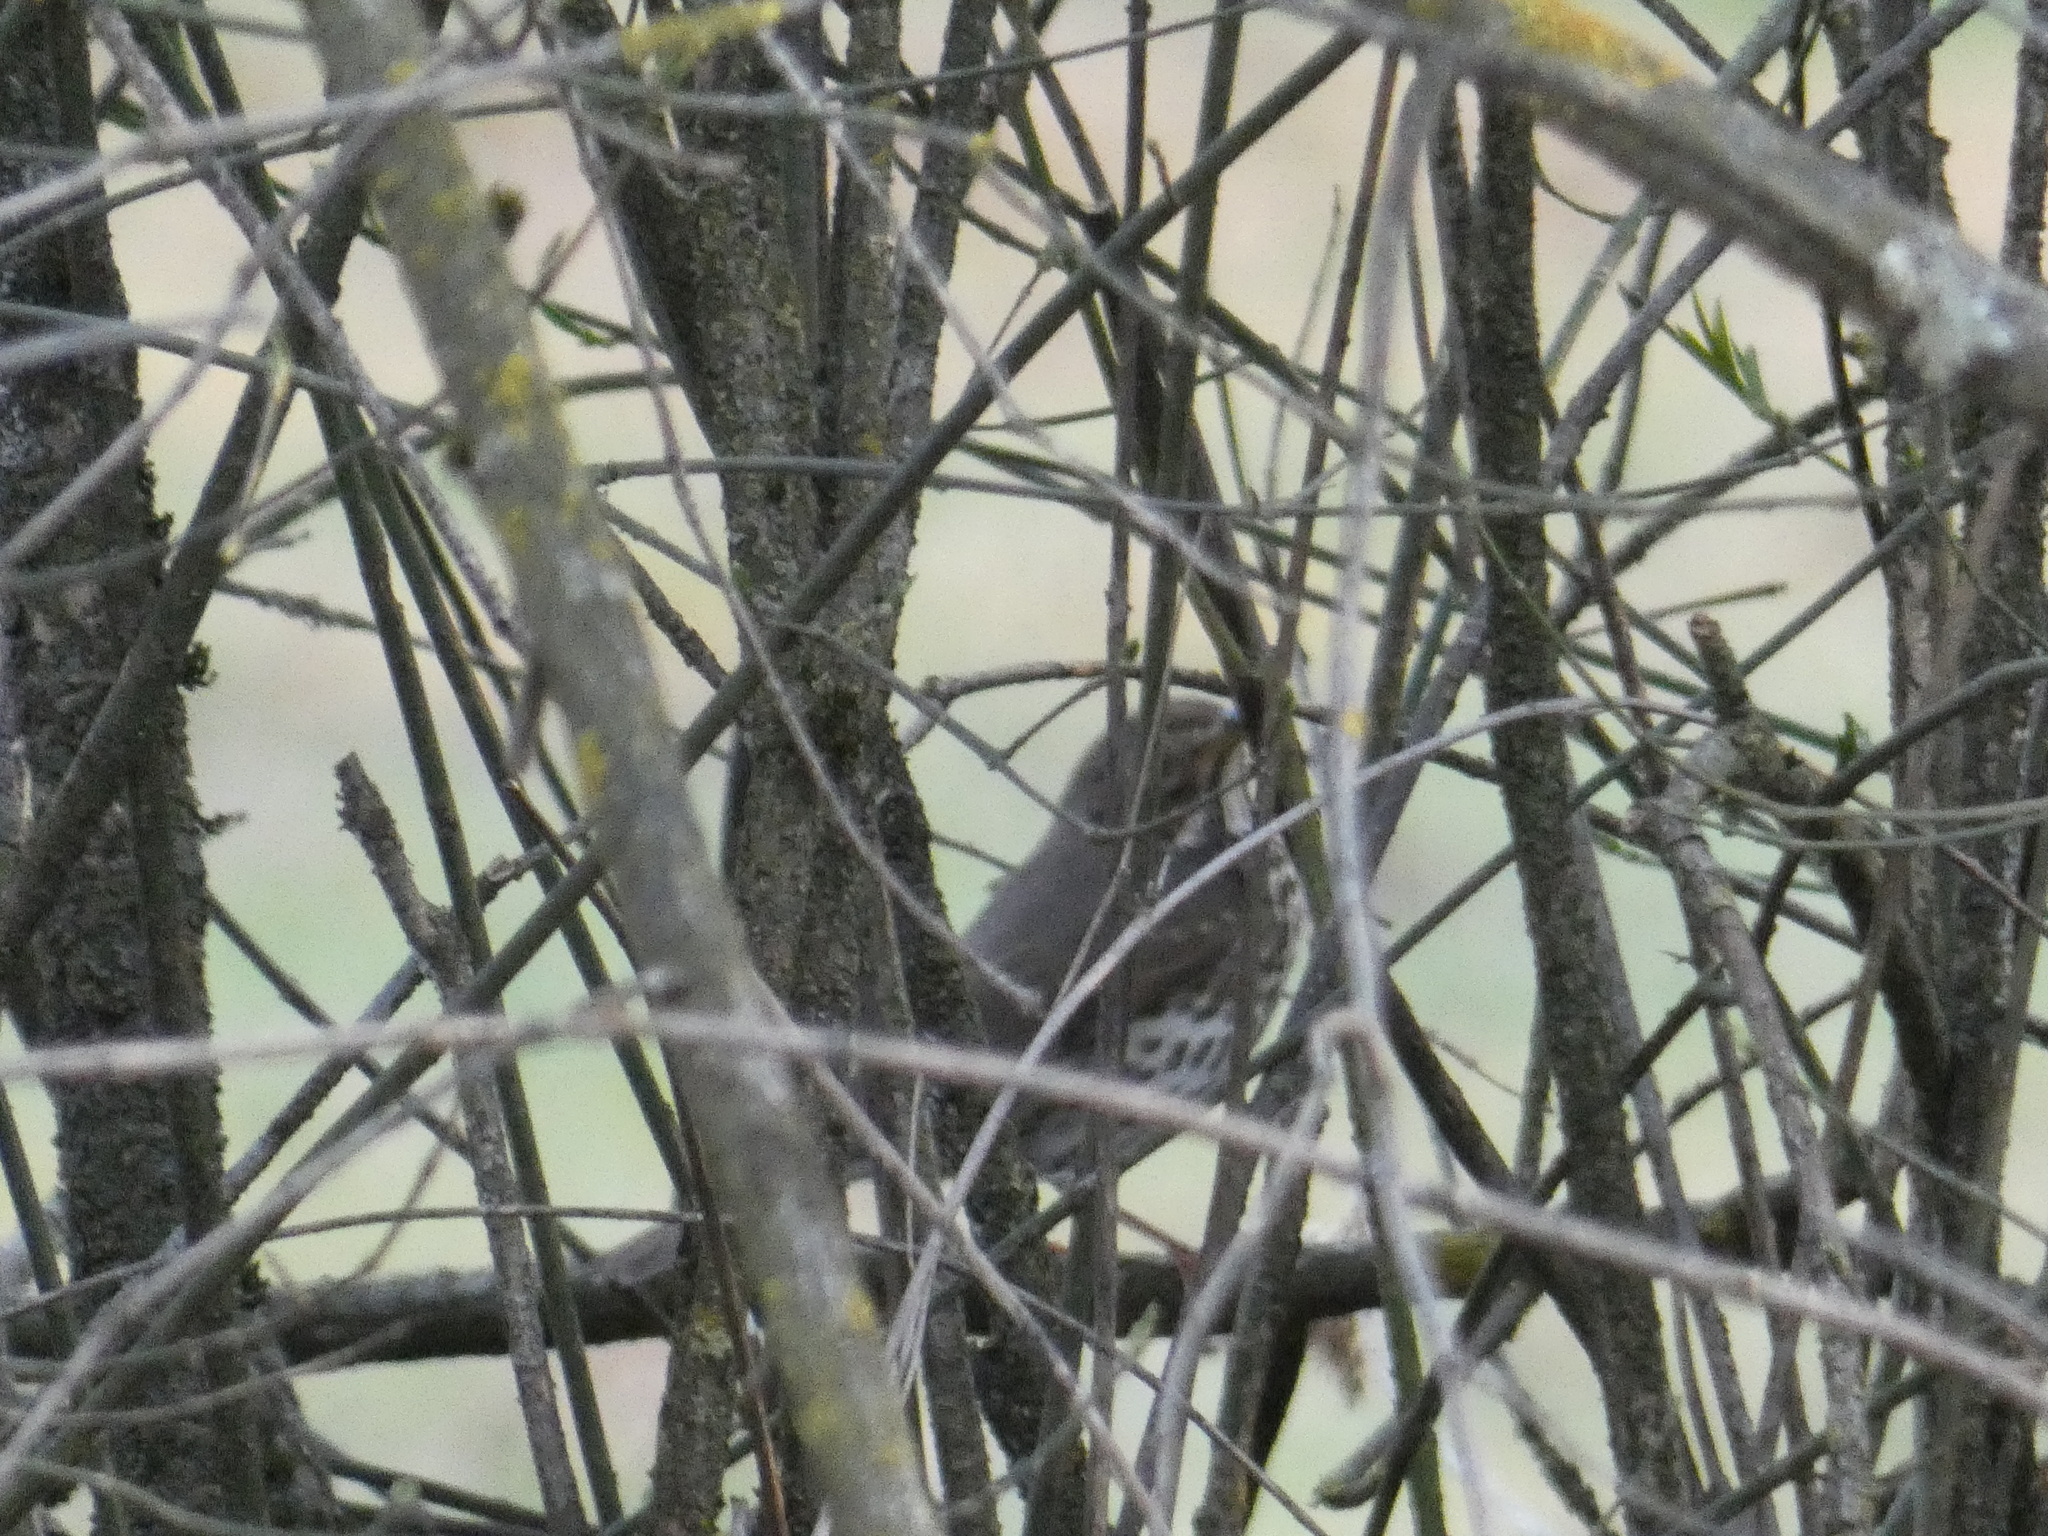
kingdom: Animalia
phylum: Chordata
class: Aves
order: Passeriformes
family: Turdidae
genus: Turdus
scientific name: Turdus philomelos
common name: Song thrush
